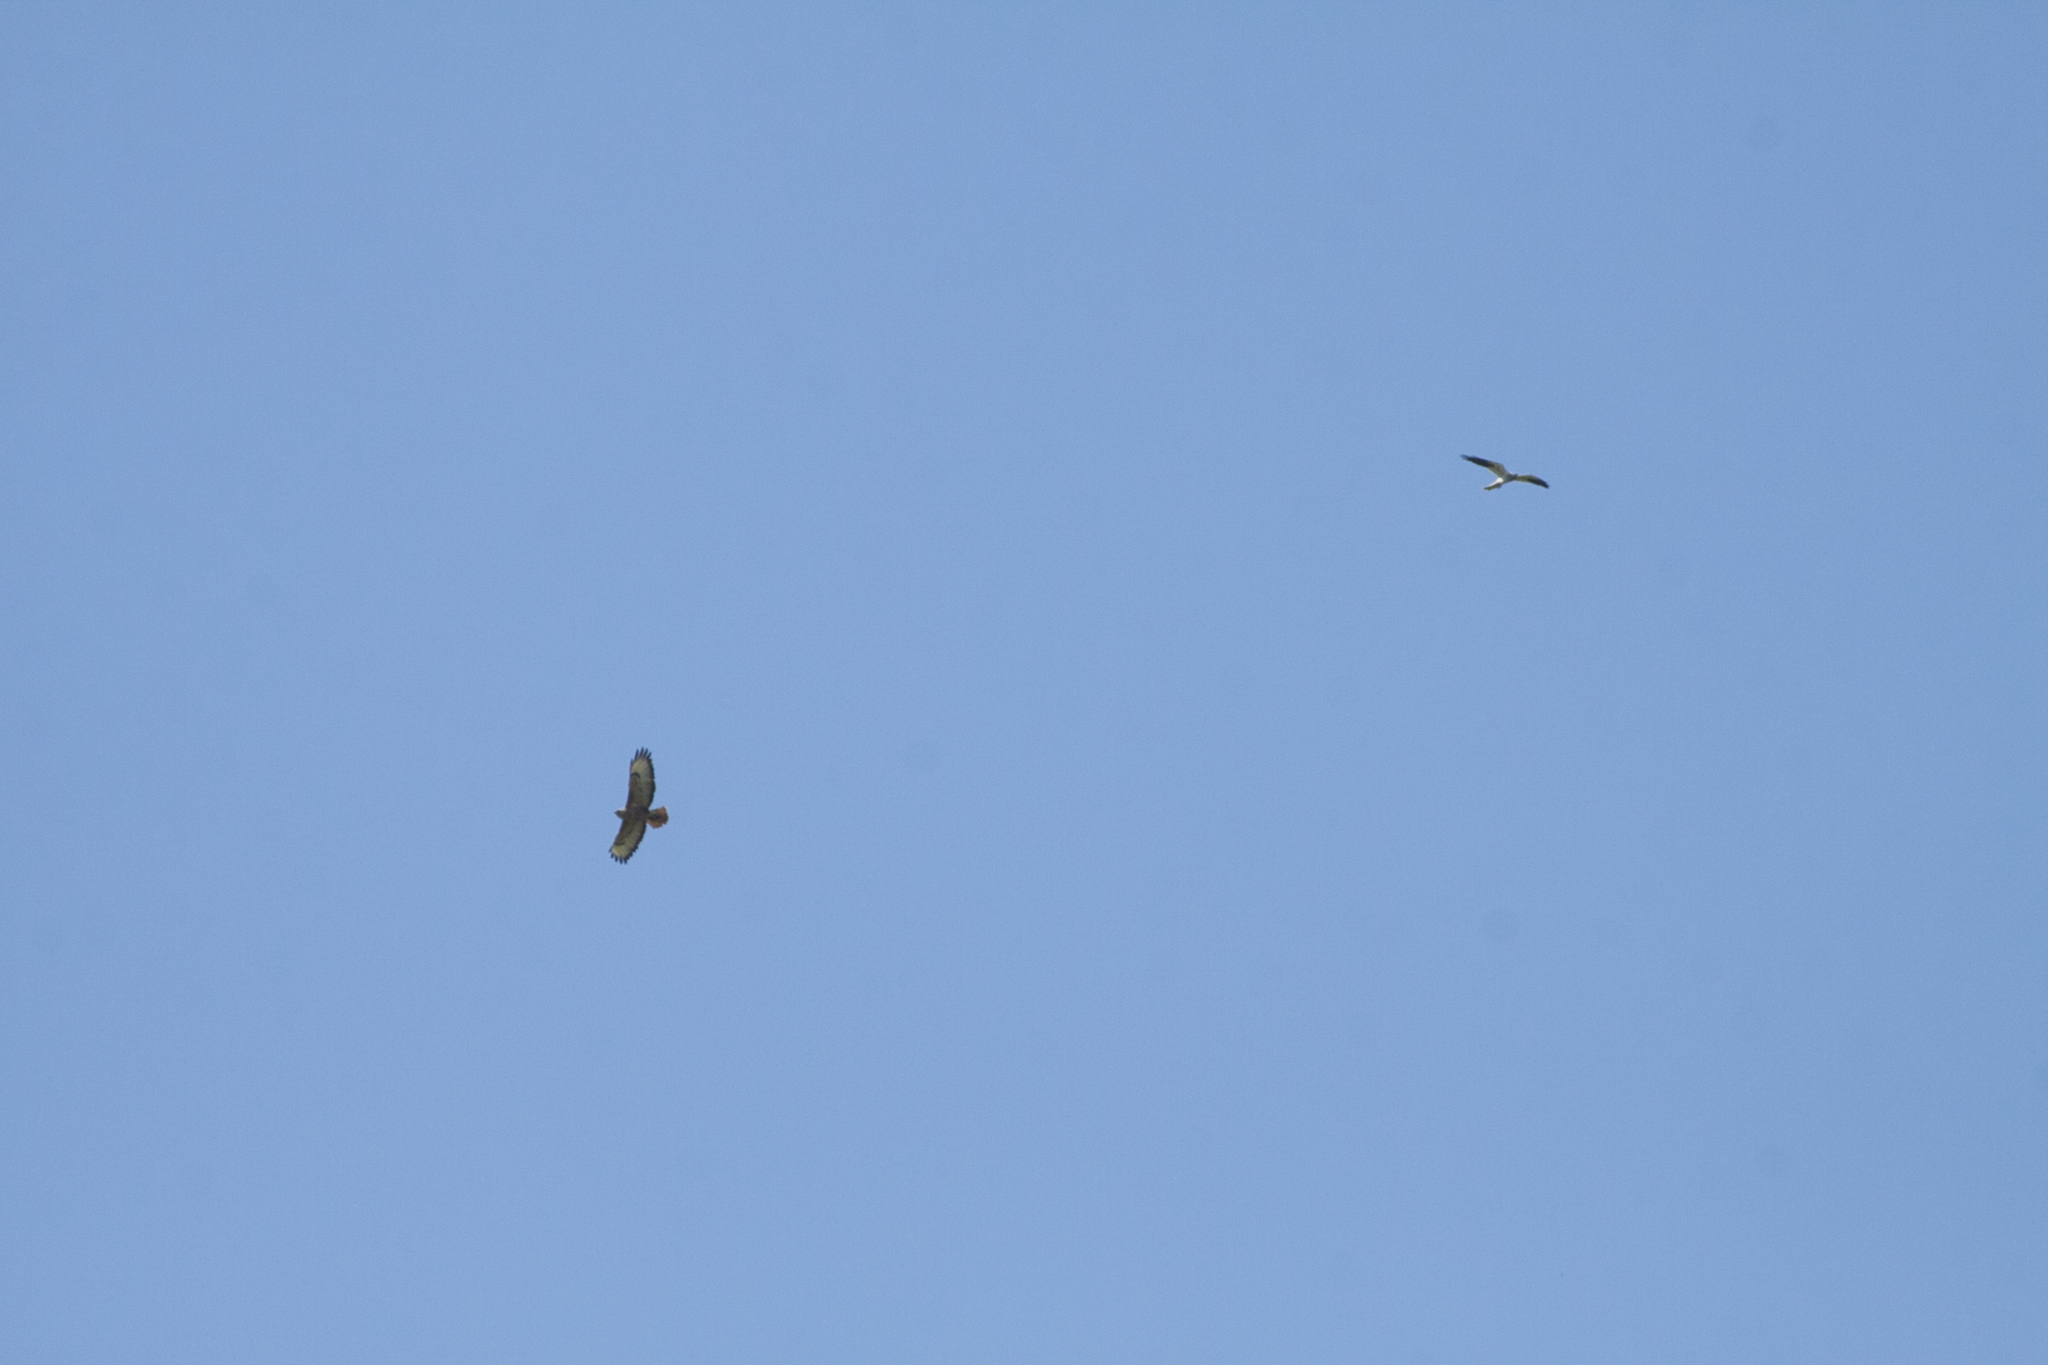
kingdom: Animalia
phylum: Chordata
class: Aves
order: Accipitriformes
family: Accipitridae
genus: Circus
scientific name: Circus pygargus
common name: Montagu's harrier
